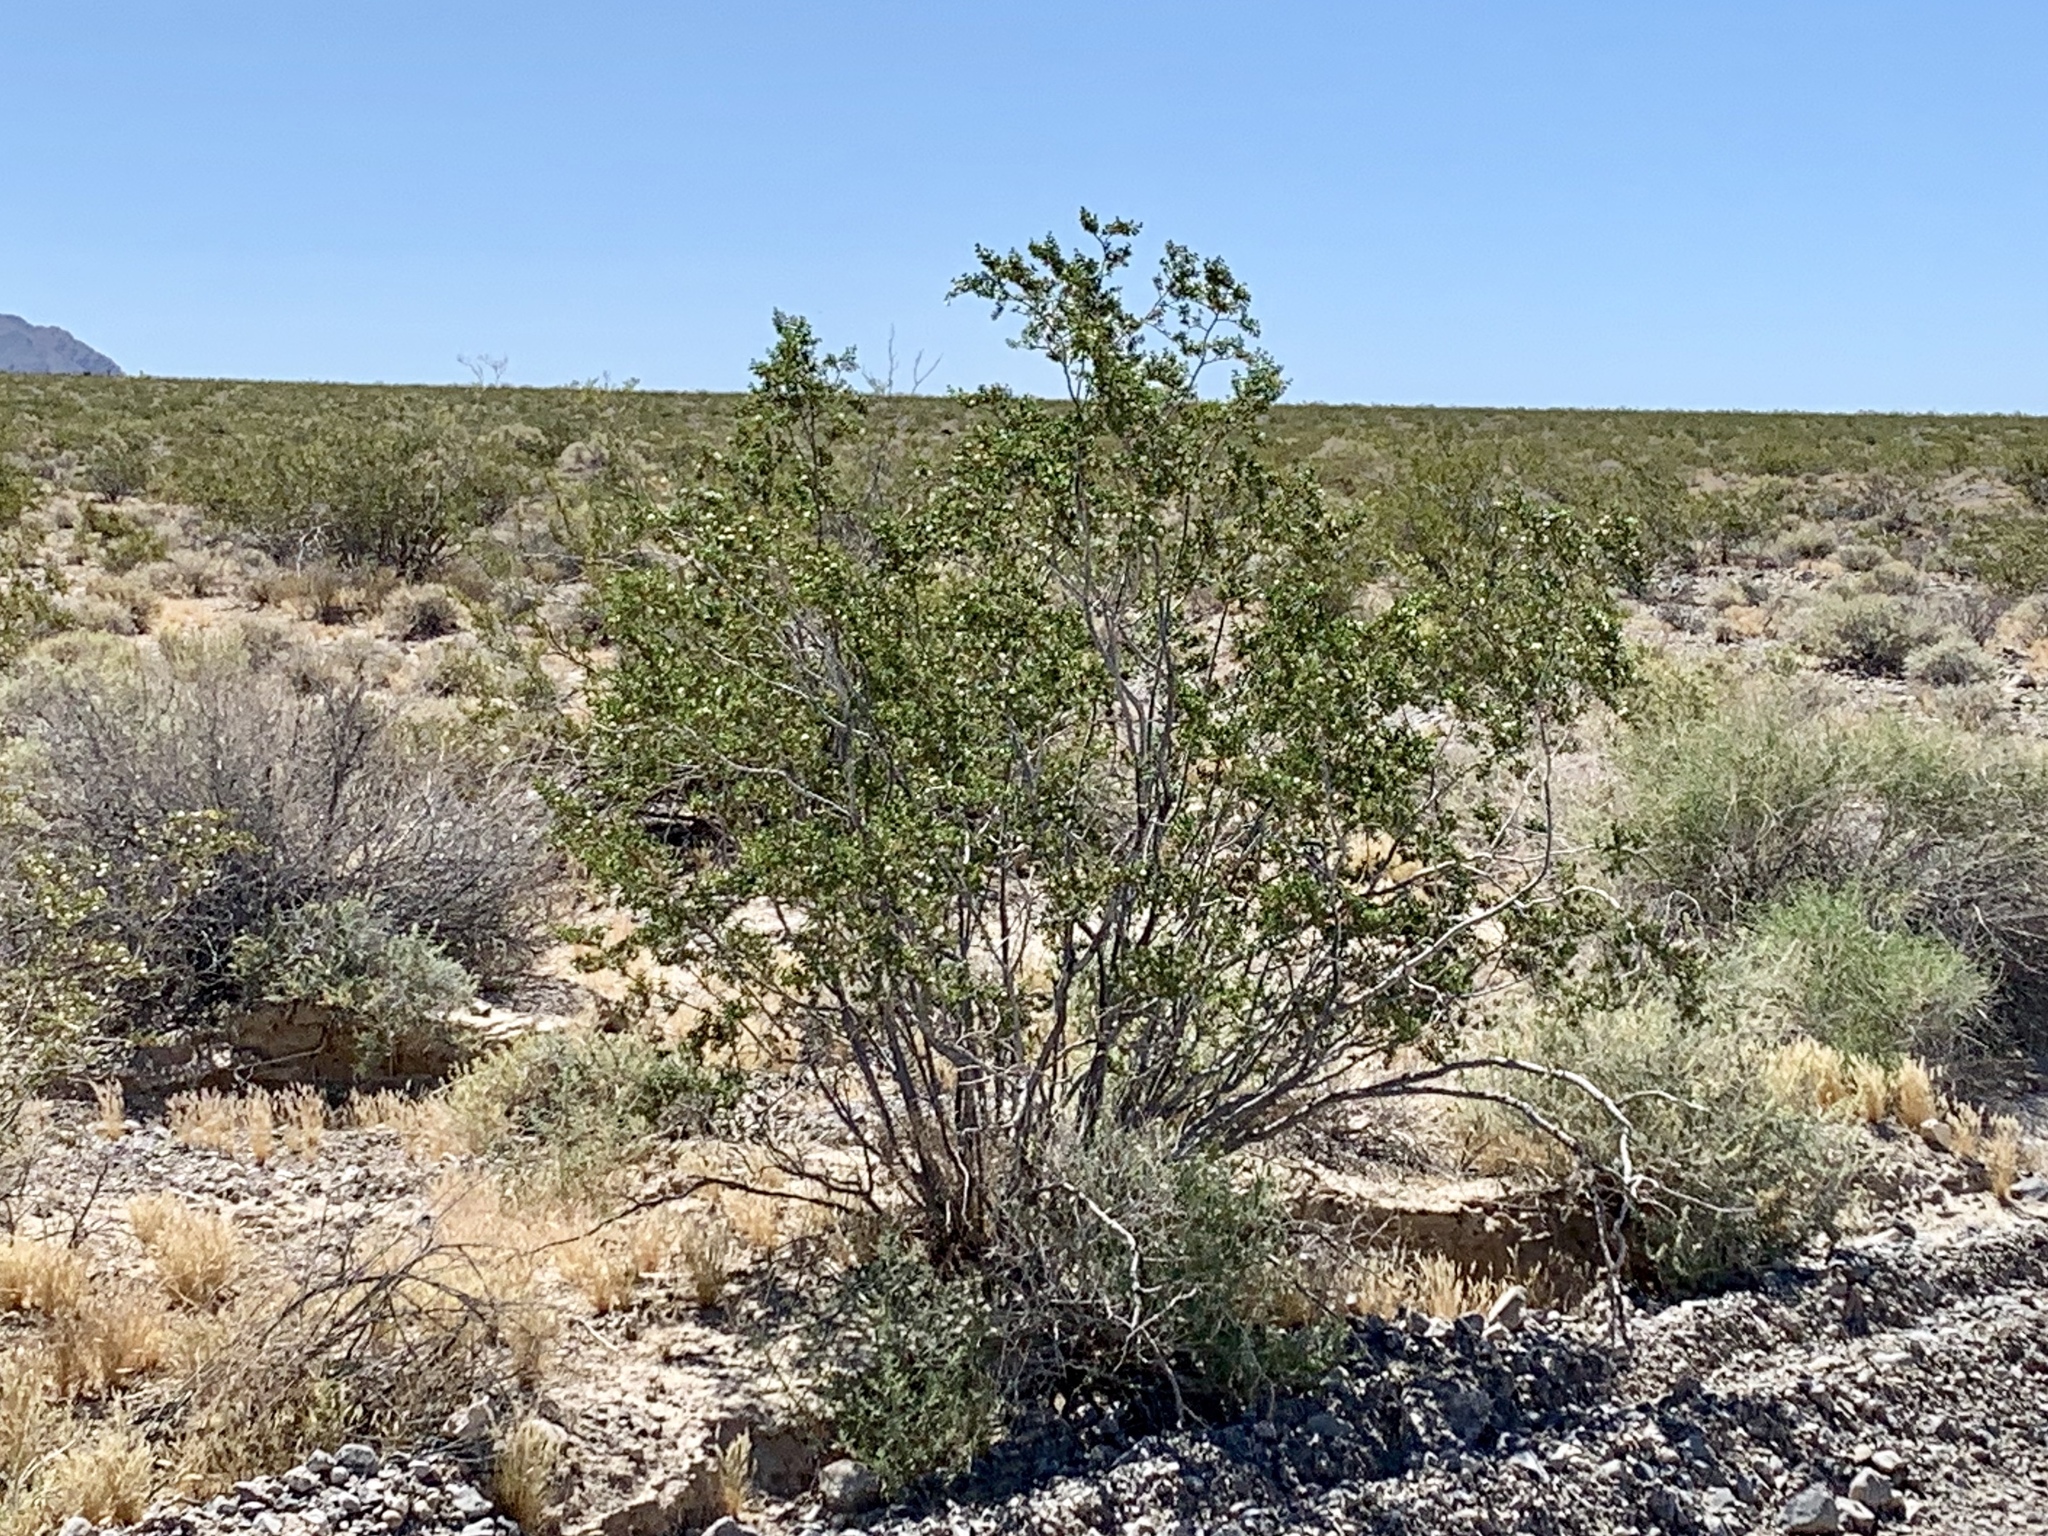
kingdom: Plantae
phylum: Tracheophyta
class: Magnoliopsida
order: Zygophyllales
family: Zygophyllaceae
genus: Larrea
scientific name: Larrea tridentata
